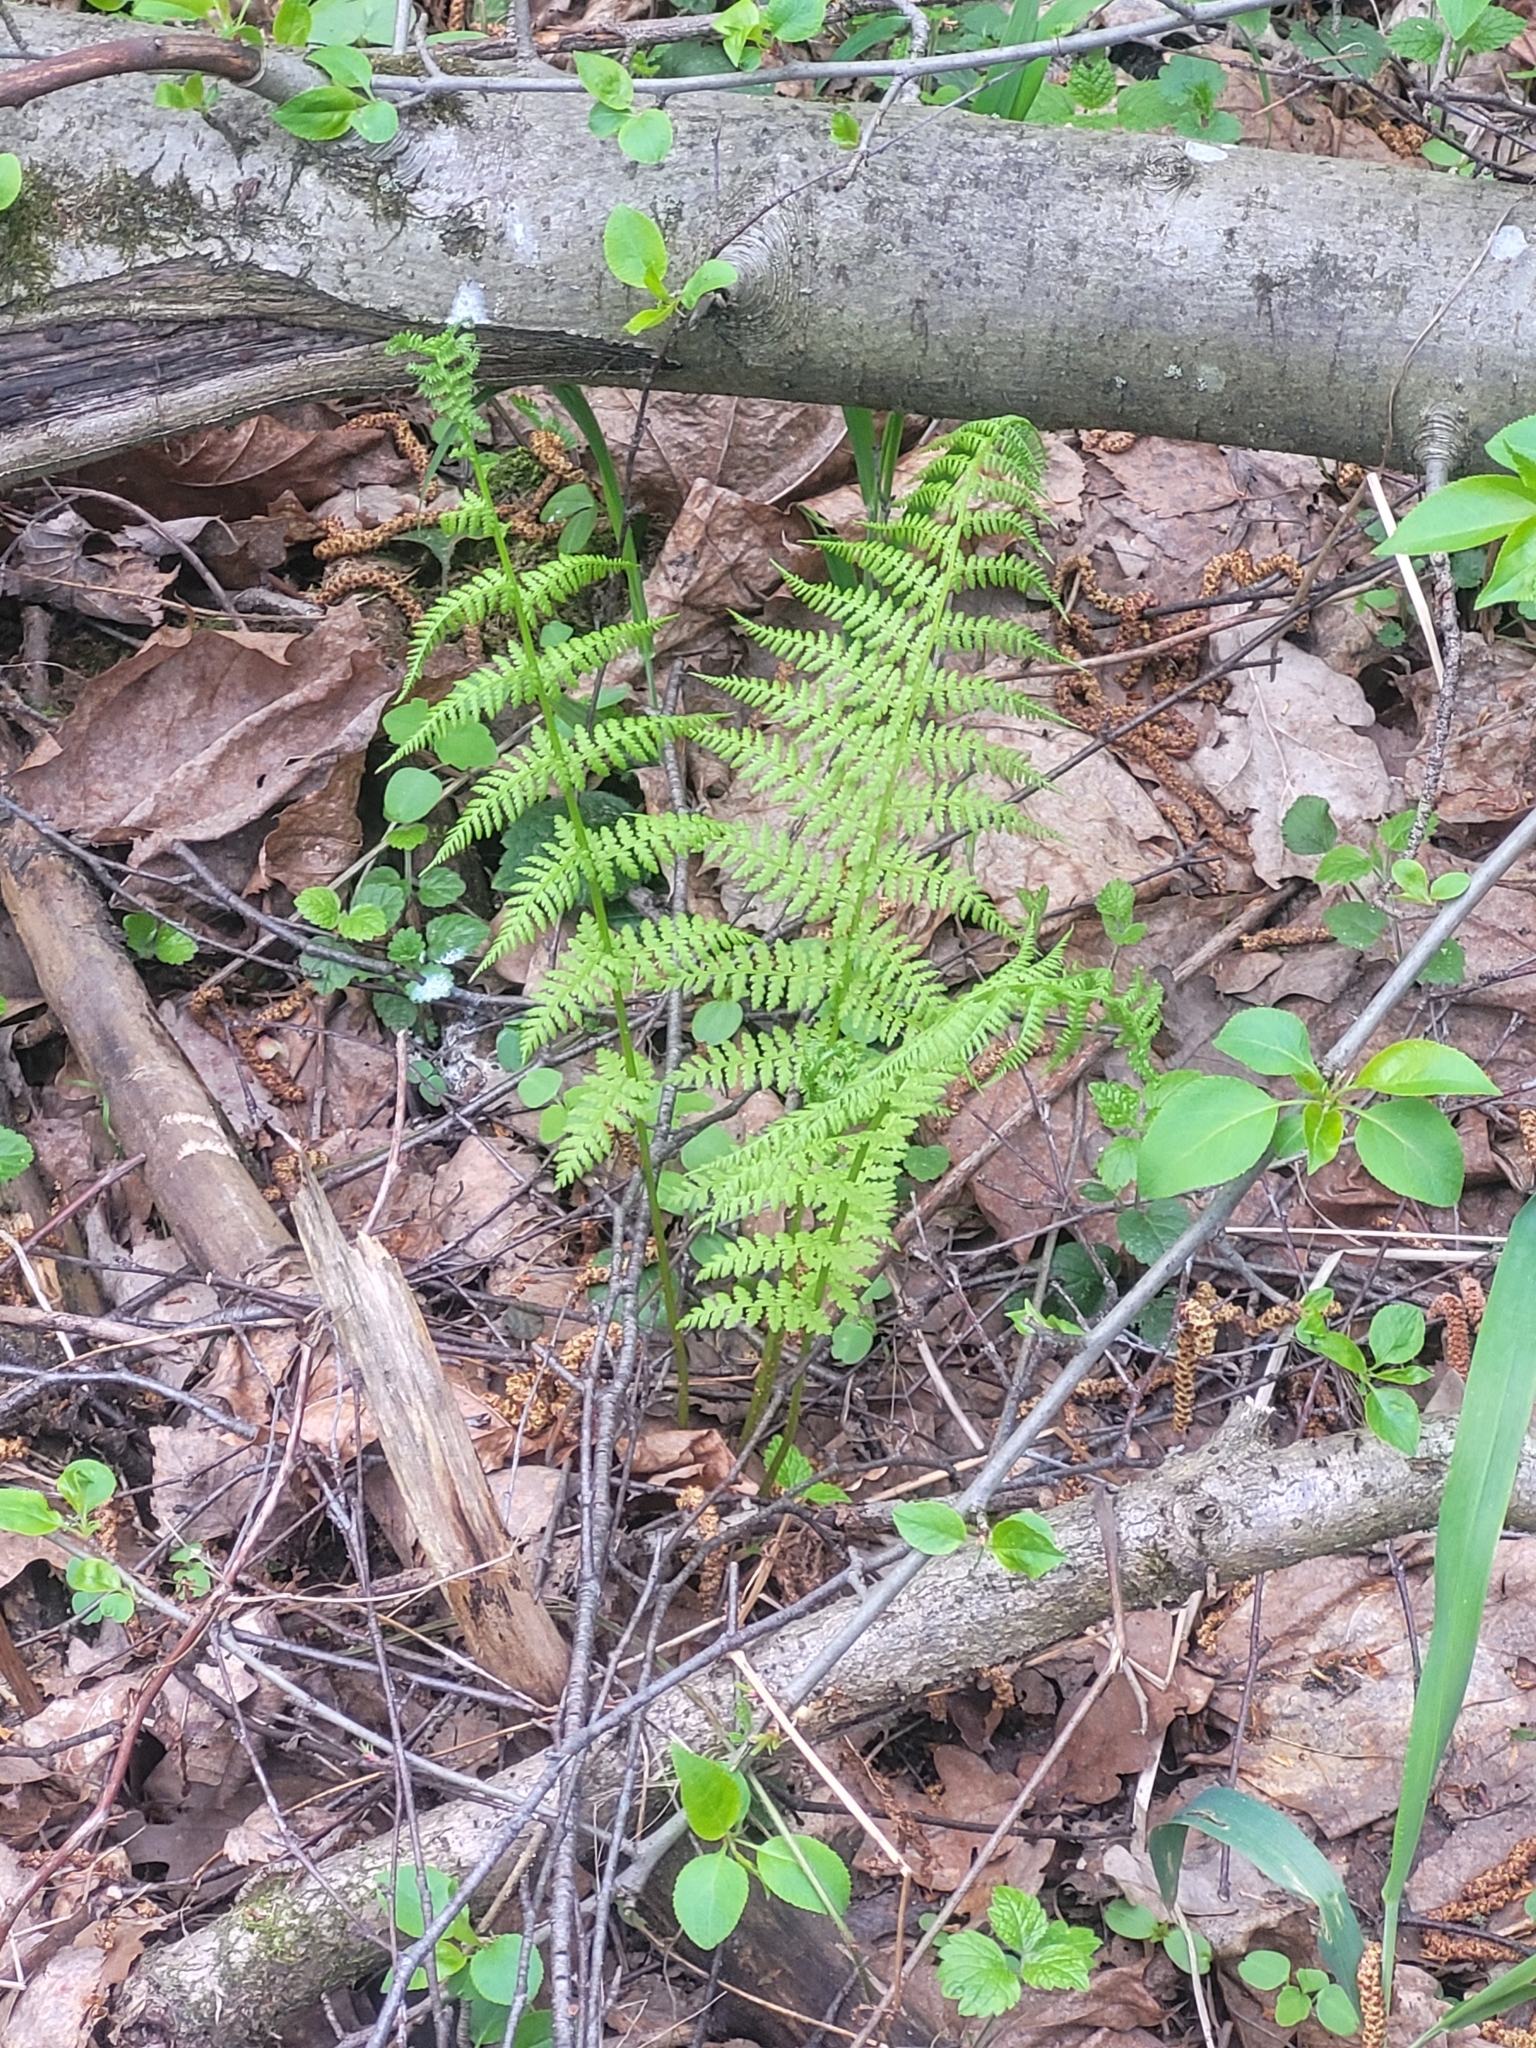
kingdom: Plantae
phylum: Tracheophyta
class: Polypodiopsida
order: Polypodiales
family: Athyriaceae
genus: Athyrium
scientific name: Athyrium filix-femina
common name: Lady fern
